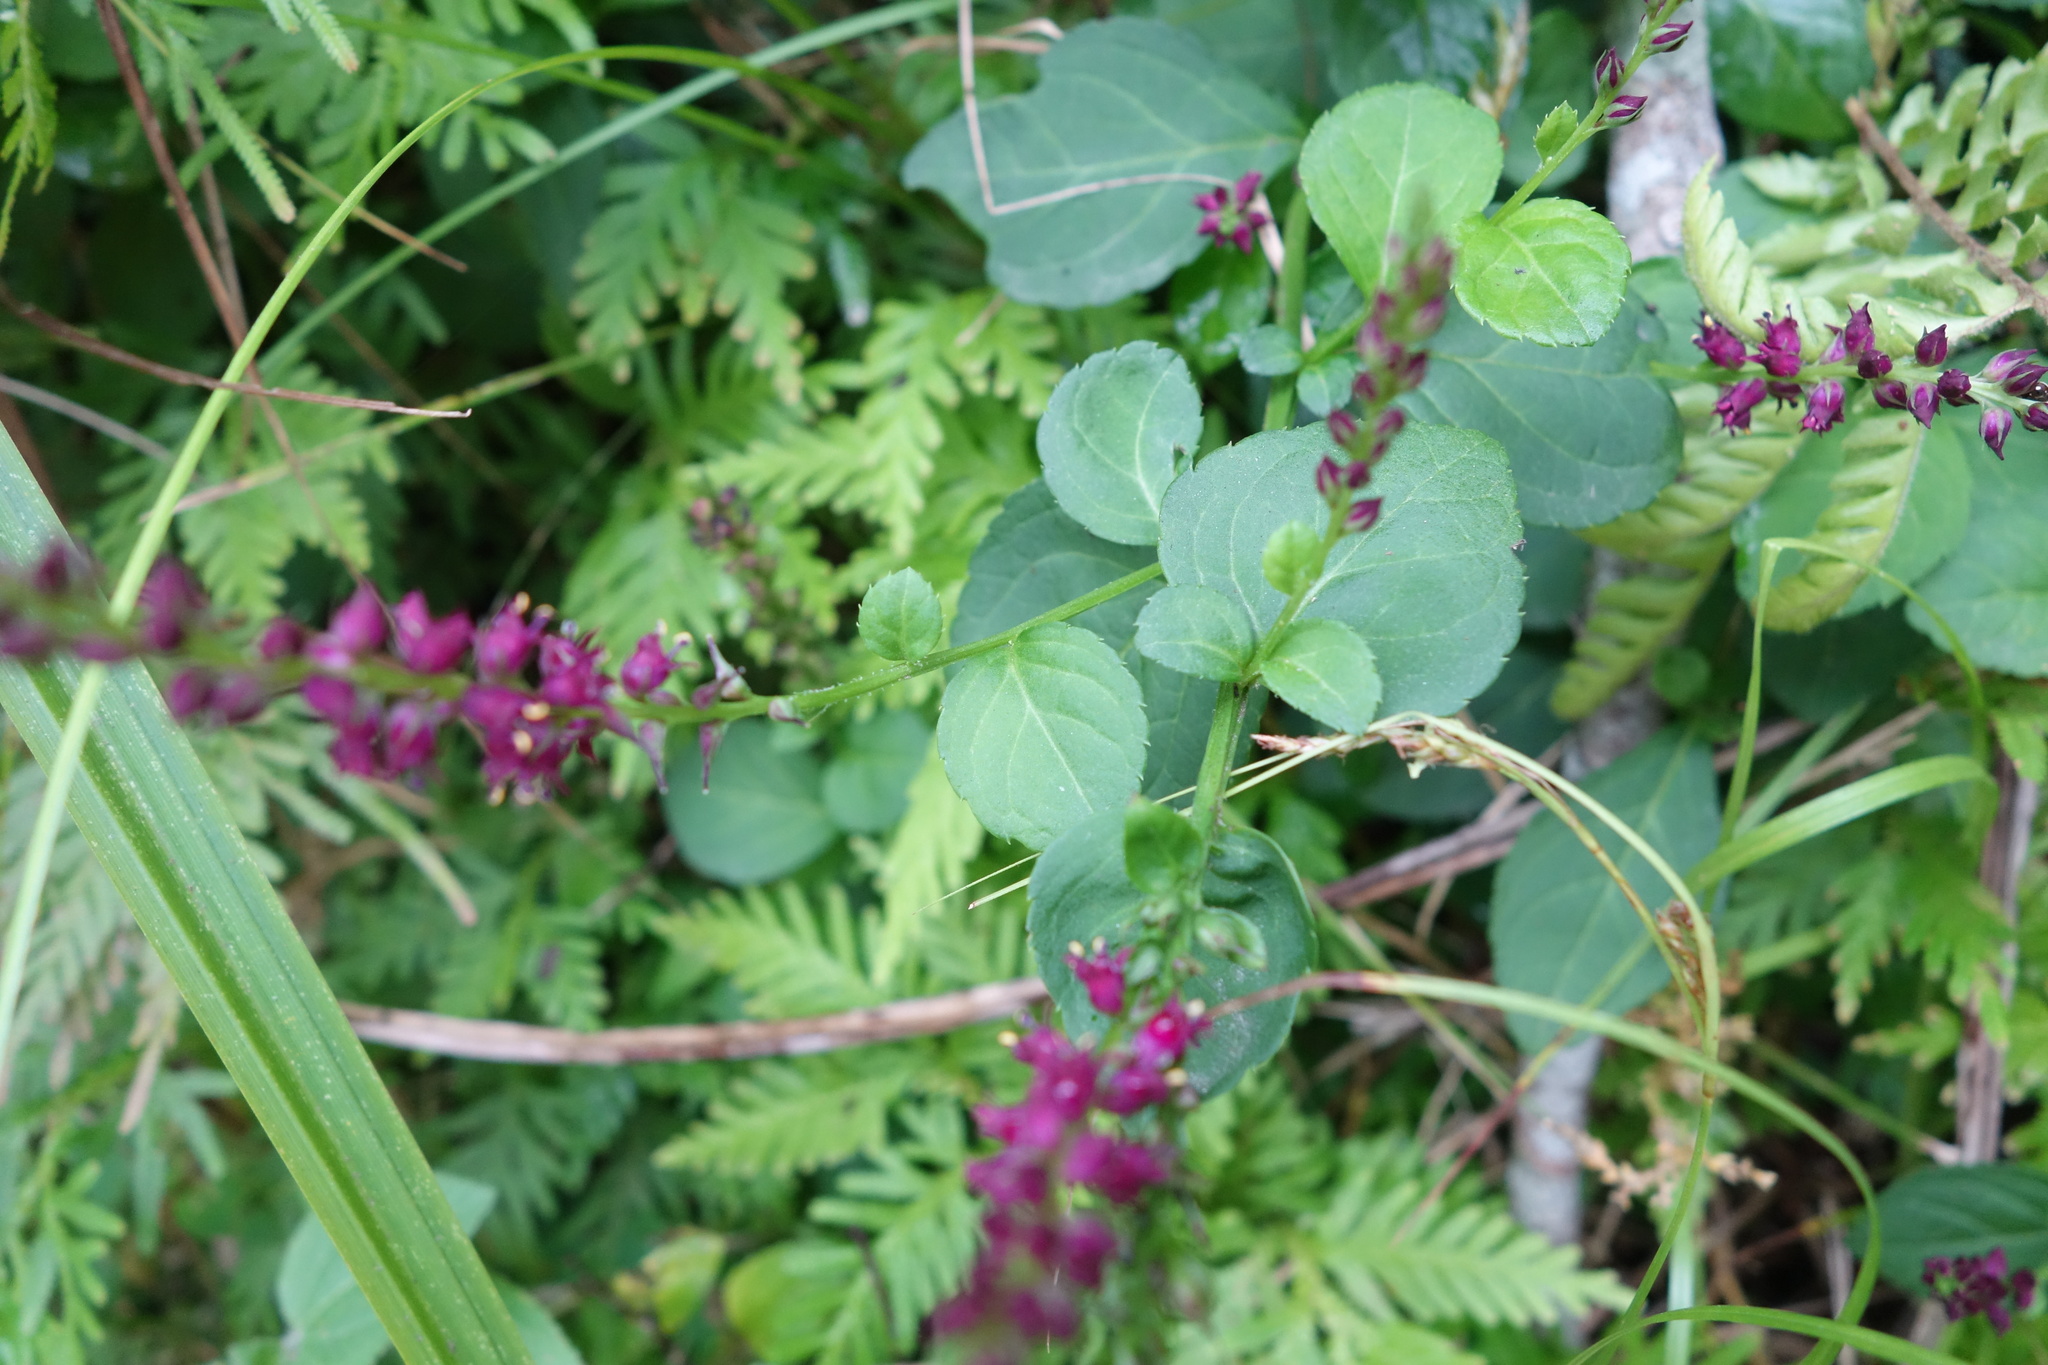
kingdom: Plantae
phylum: Tracheophyta
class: Magnoliopsida
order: Lamiales
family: Plantaginaceae
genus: Veronicastrum
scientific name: Veronicastrum loshanense
